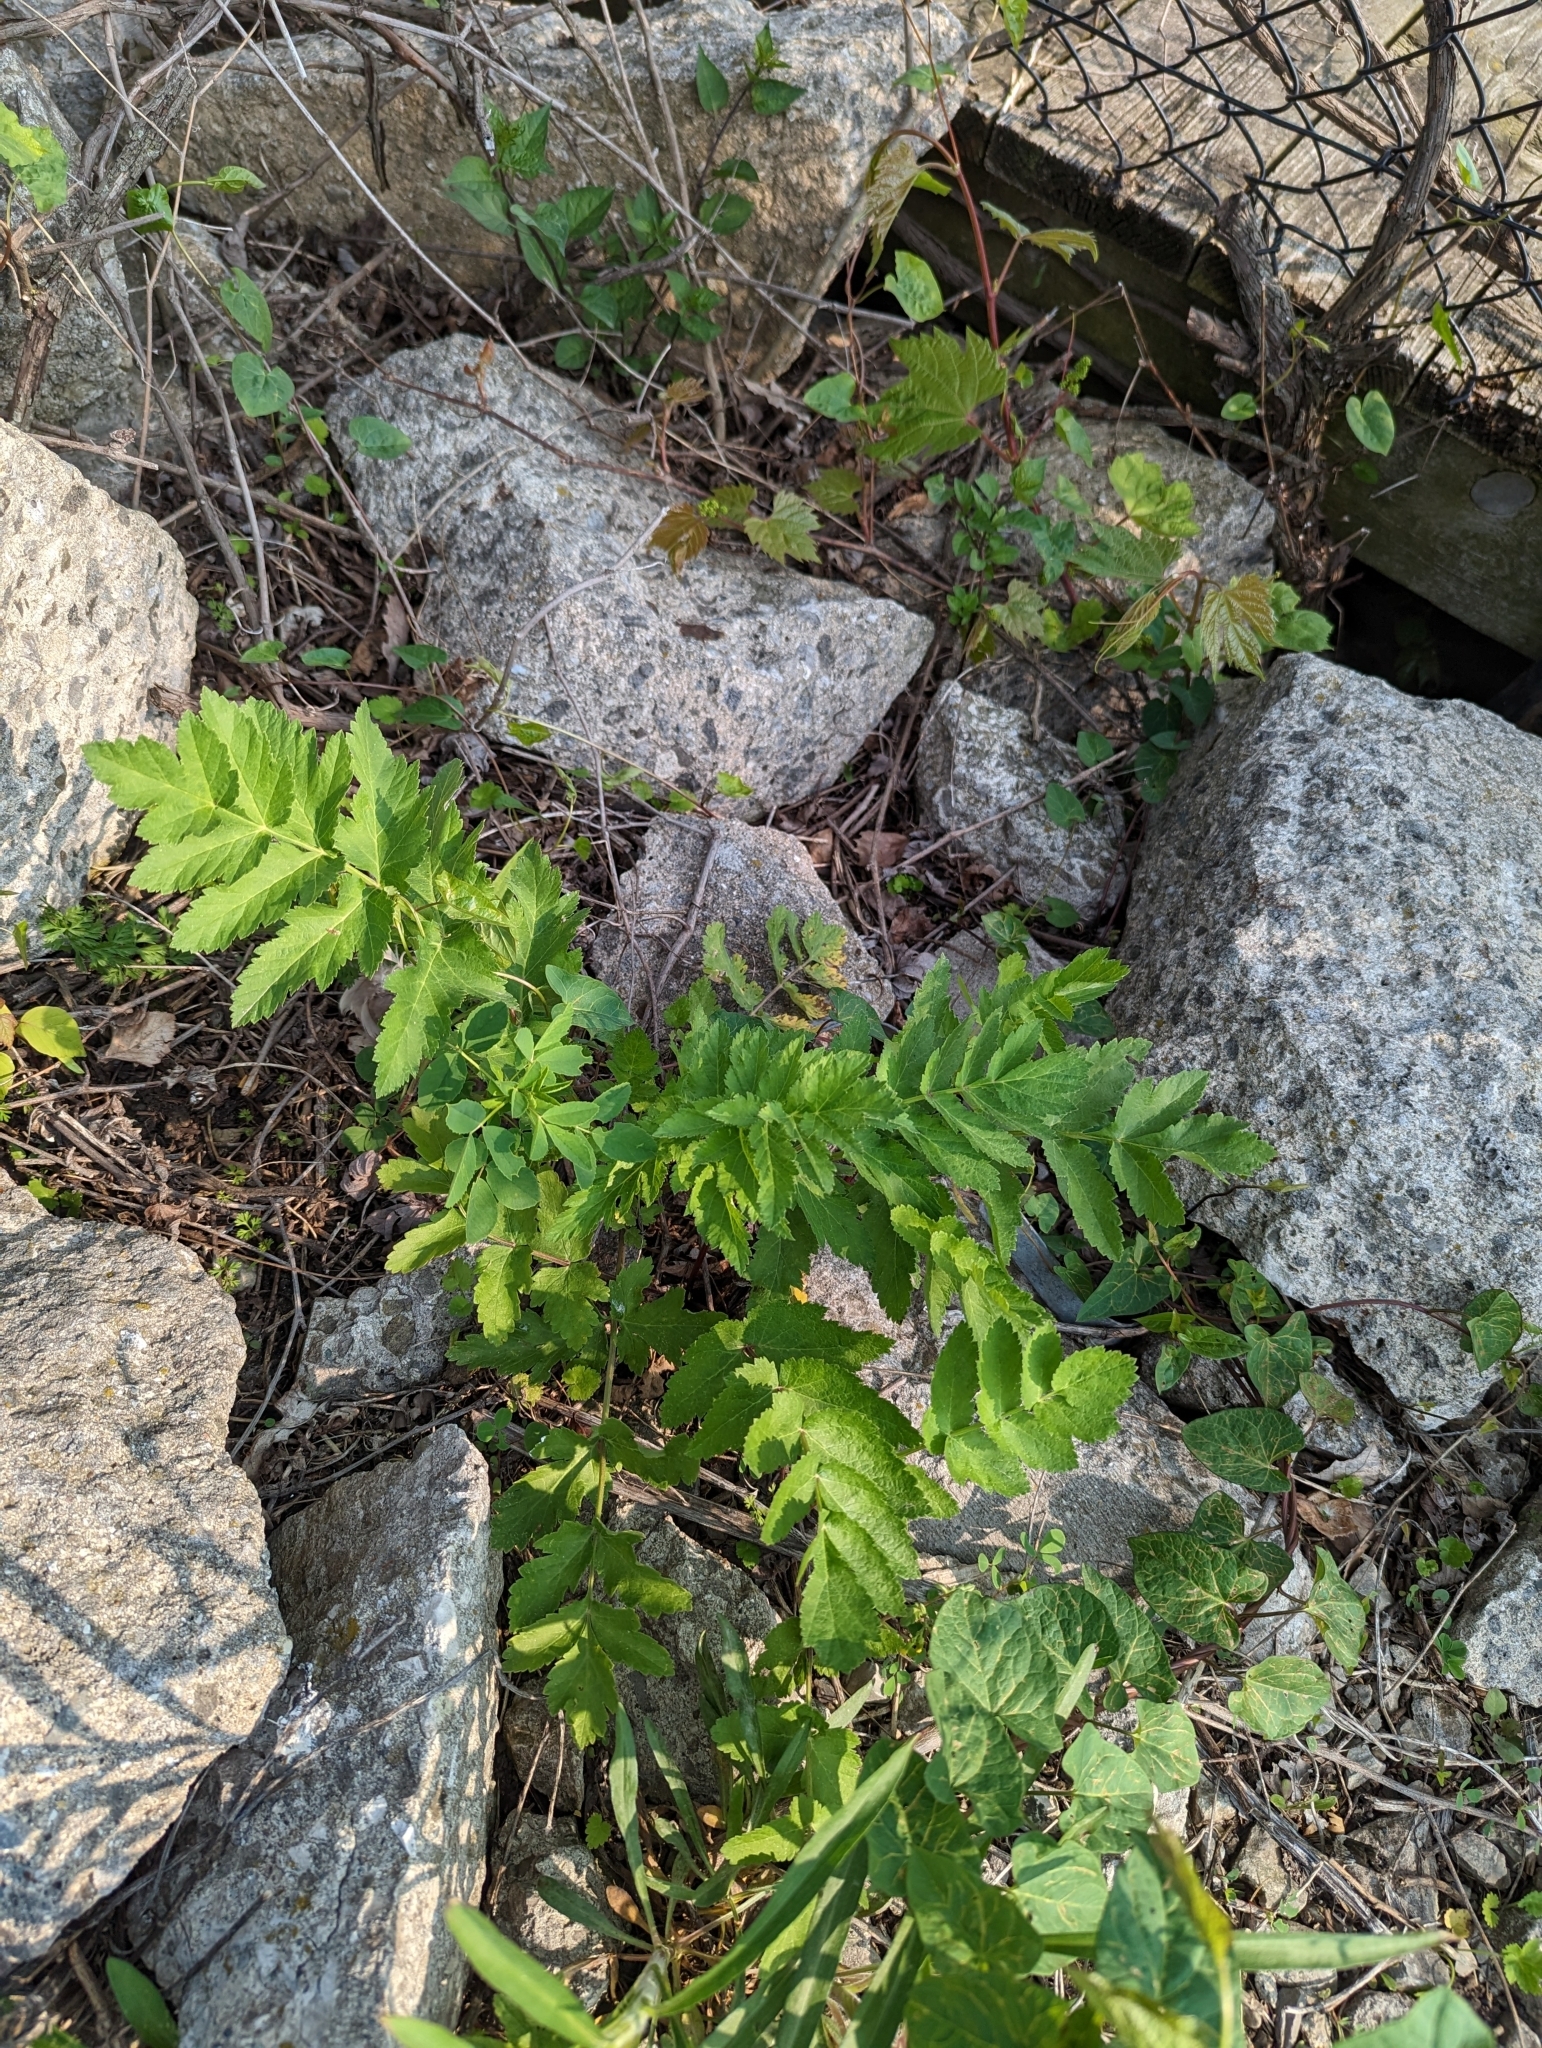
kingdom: Plantae
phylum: Tracheophyta
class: Magnoliopsida
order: Apiales
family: Apiaceae
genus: Pastinaca
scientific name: Pastinaca sativa
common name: Wild parsnip
